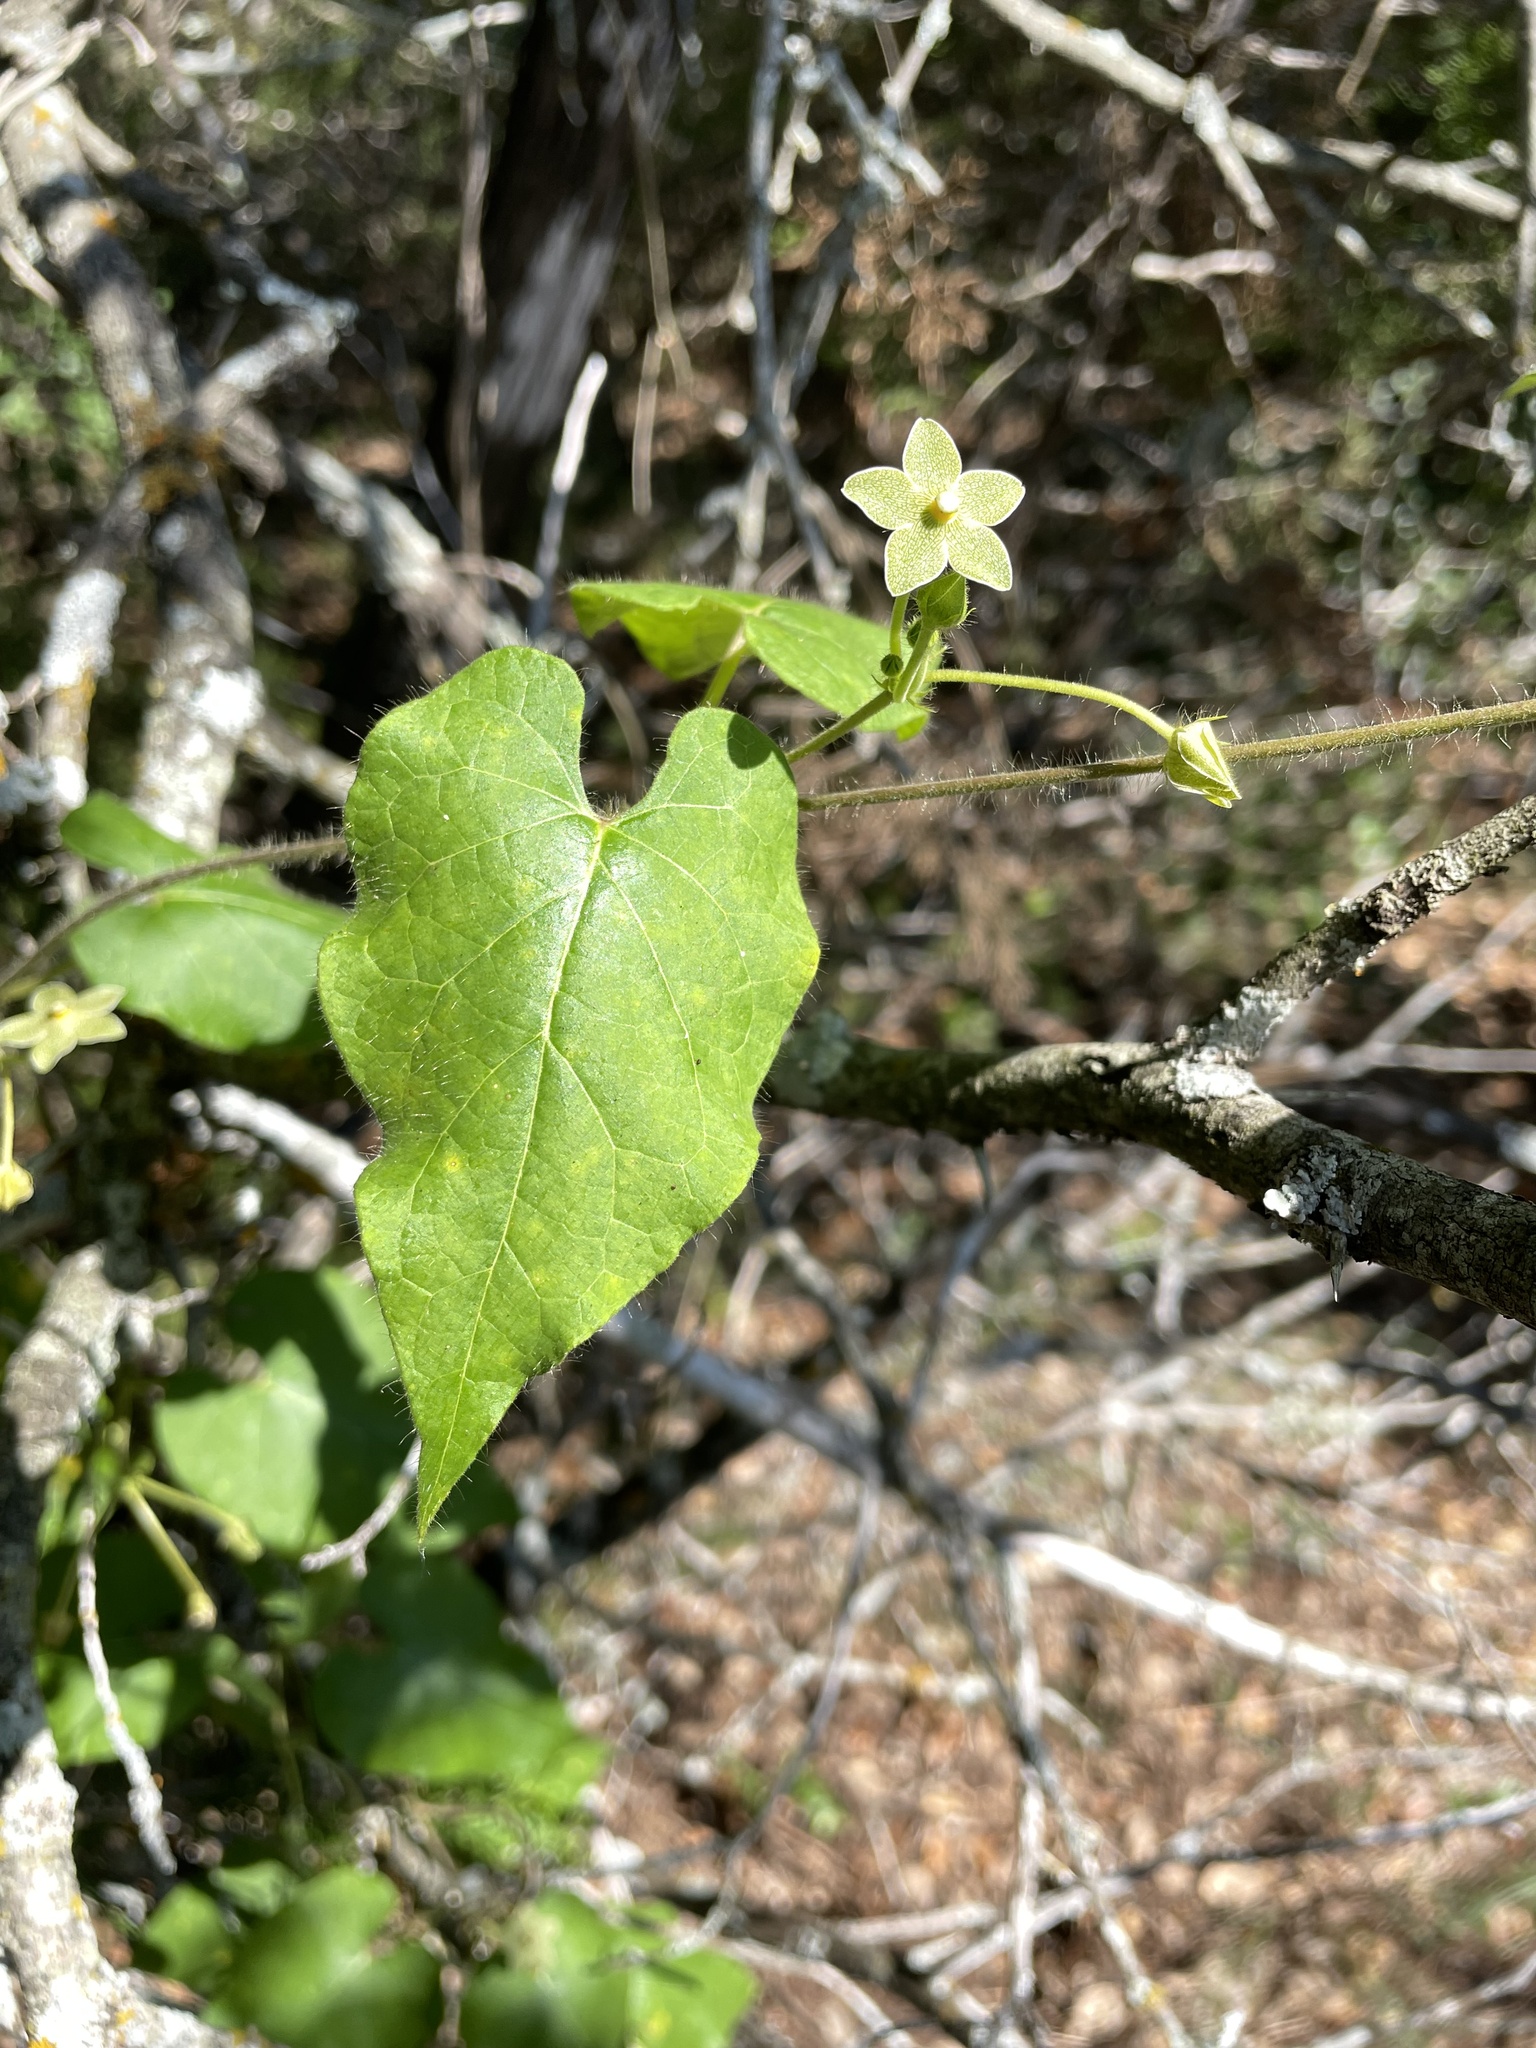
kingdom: Plantae
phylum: Tracheophyta
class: Magnoliopsida
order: Gentianales
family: Apocynaceae
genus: Dictyanthus
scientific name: Dictyanthus reticulatus
